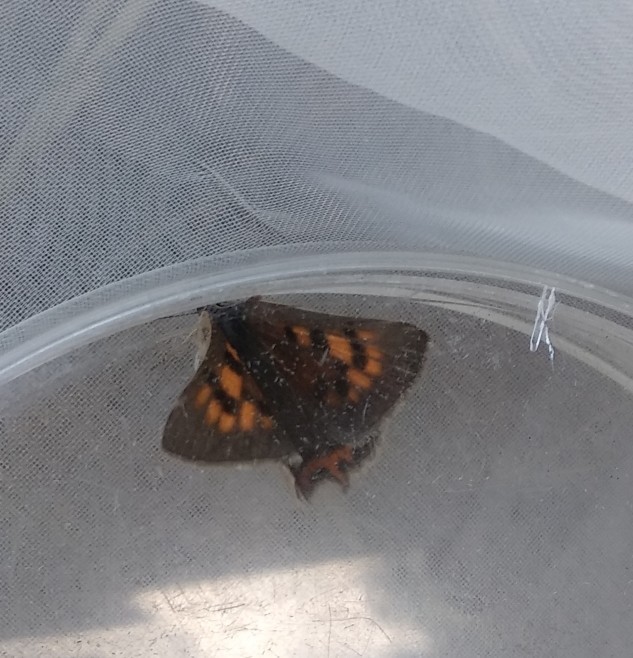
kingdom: Animalia
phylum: Arthropoda
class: Insecta
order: Lepidoptera
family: Lycaenidae
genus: Lycaena
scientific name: Lycaena phlaeas
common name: Small copper
